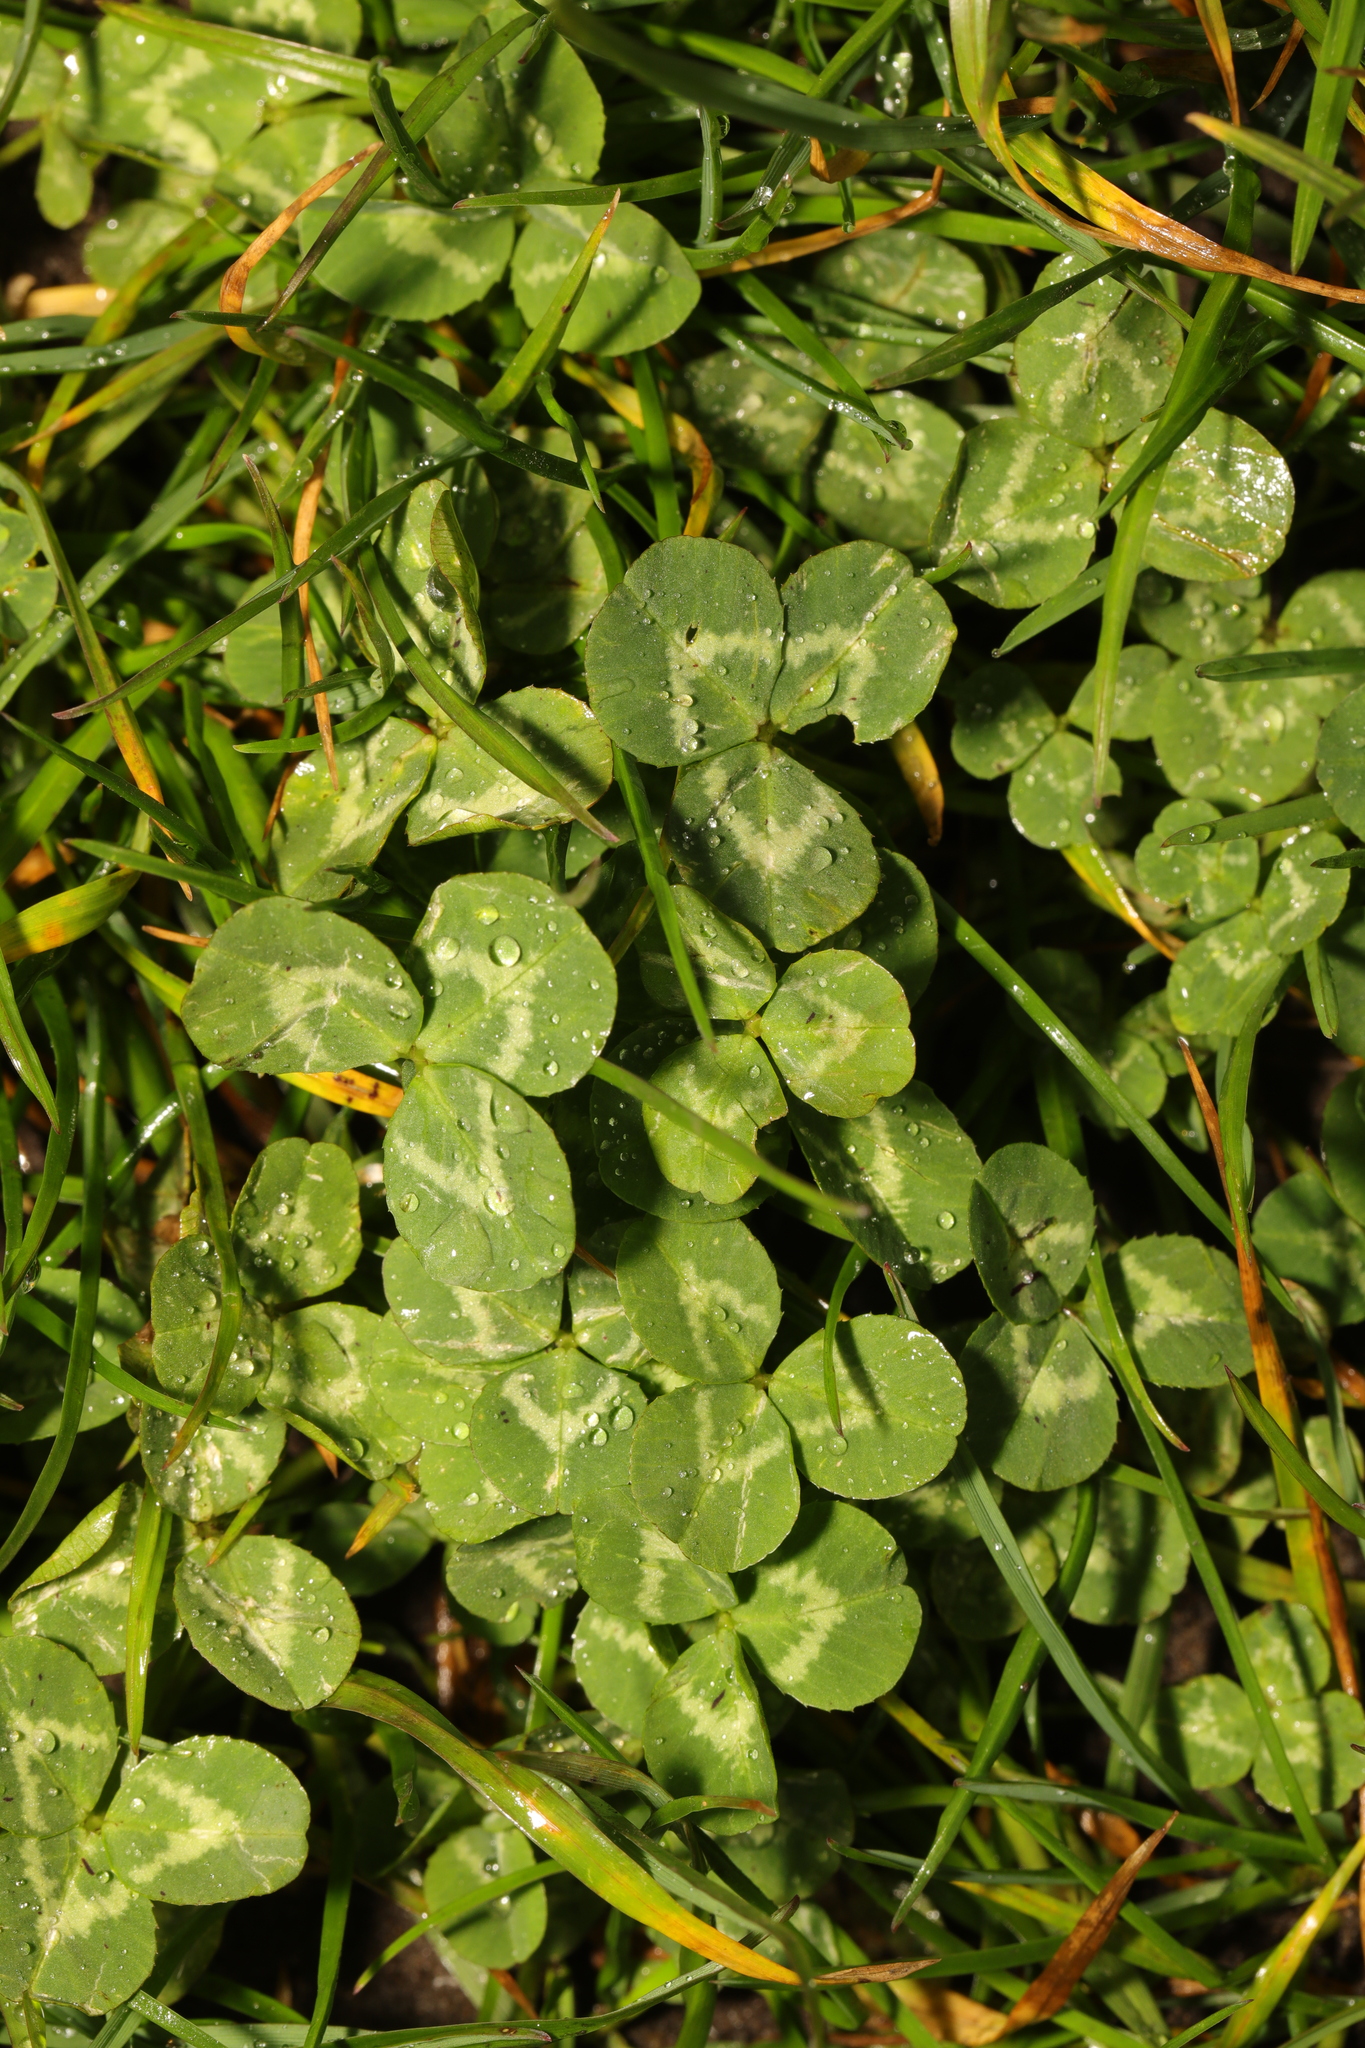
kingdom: Plantae
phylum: Tracheophyta
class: Magnoliopsida
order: Fabales
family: Fabaceae
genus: Trifolium
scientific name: Trifolium repens
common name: White clover
